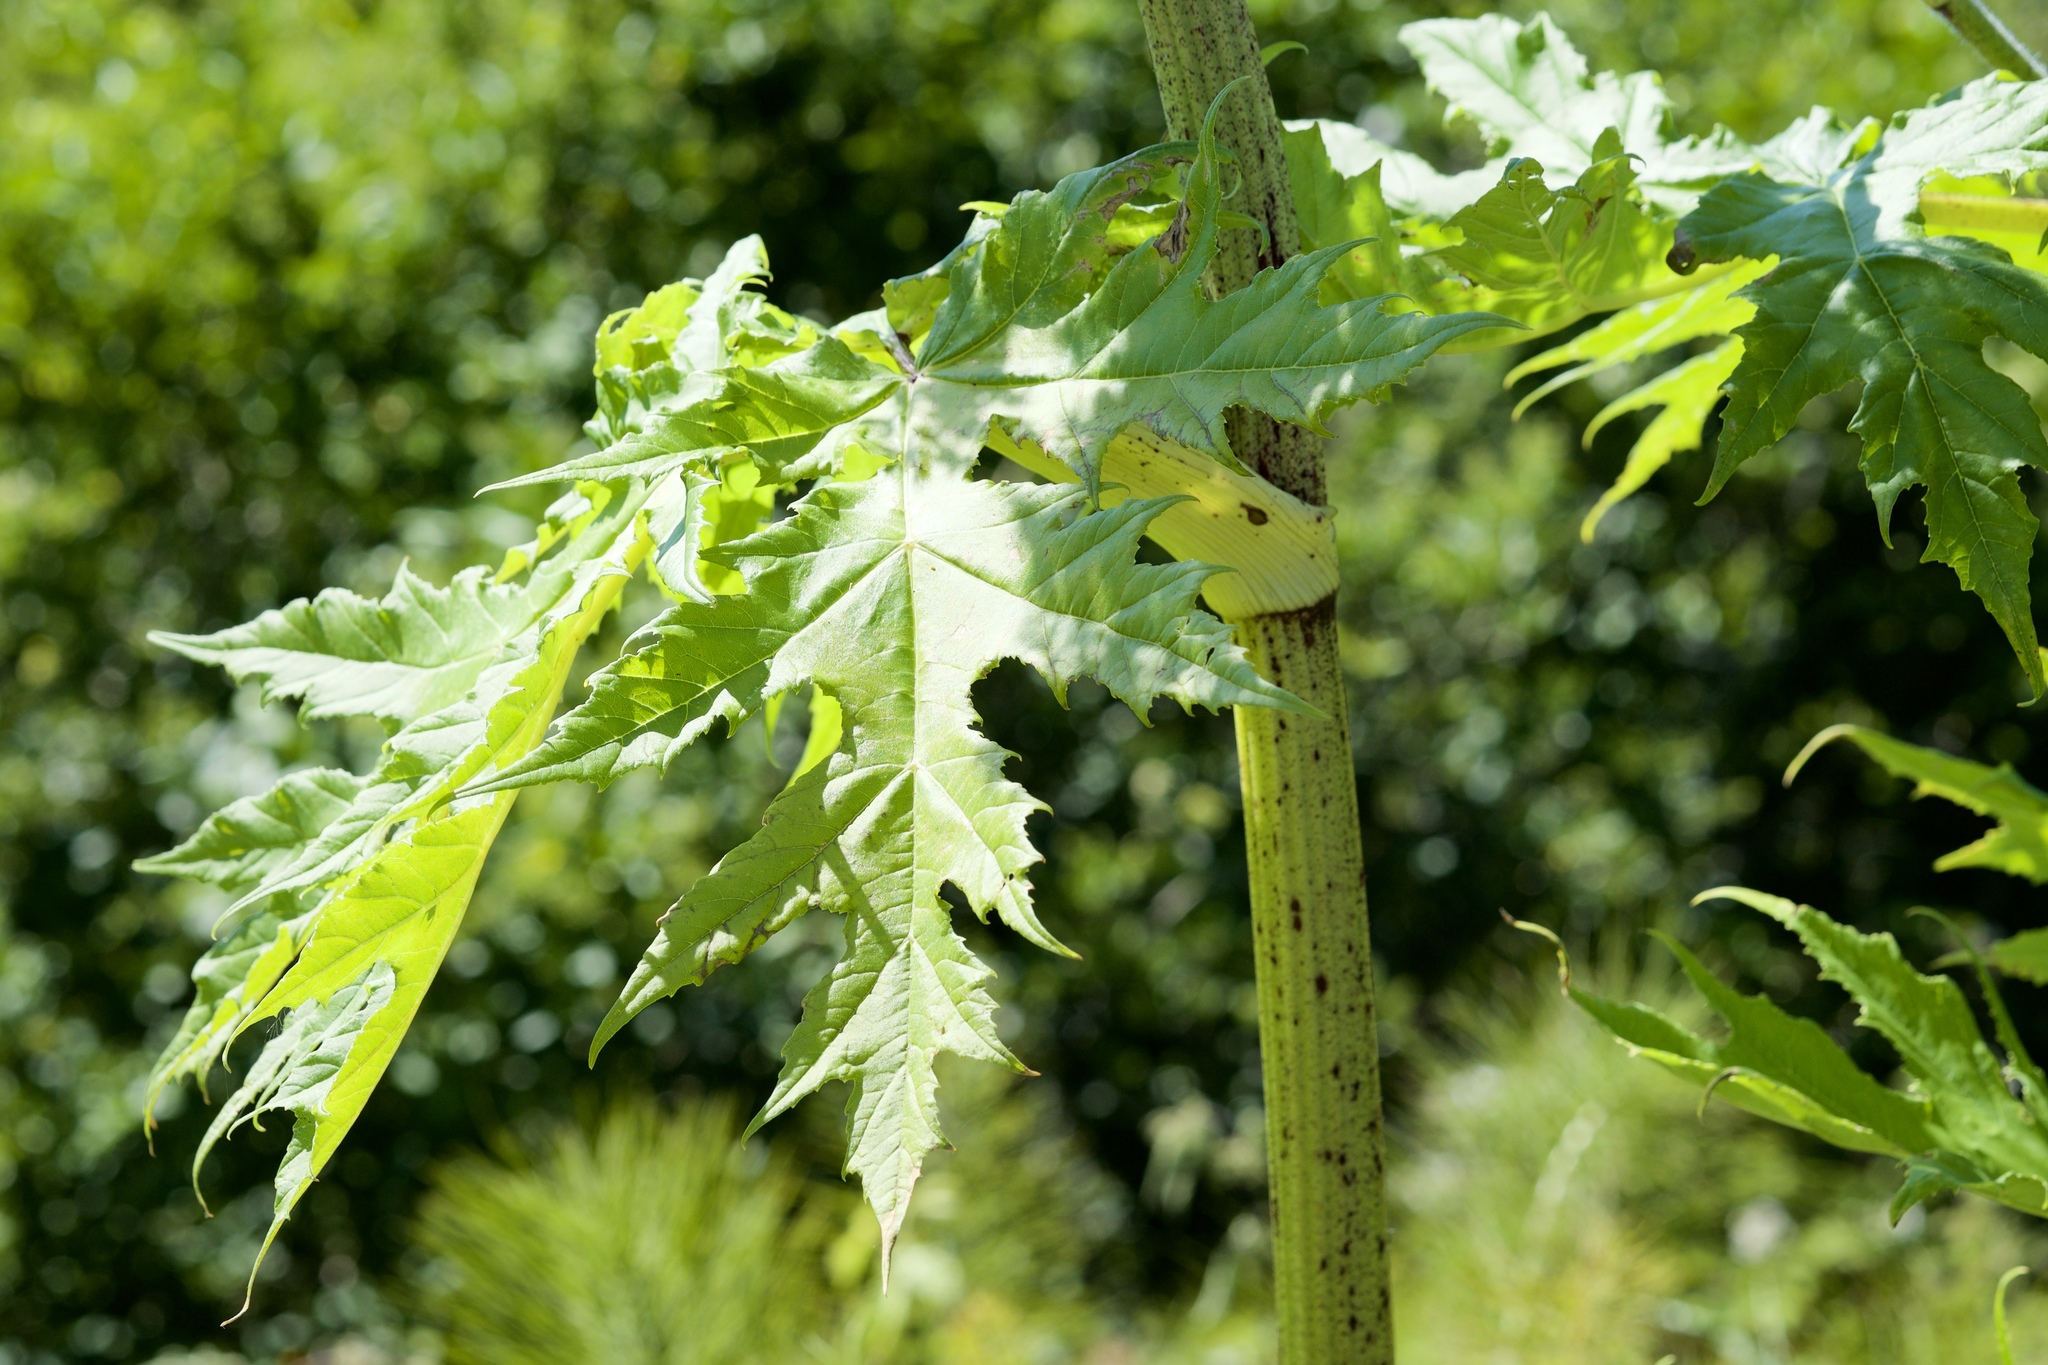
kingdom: Plantae
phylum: Tracheophyta
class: Magnoliopsida
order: Apiales
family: Apiaceae
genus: Heracleum
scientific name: Heracleum mantegazzianum
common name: Giant hogweed
